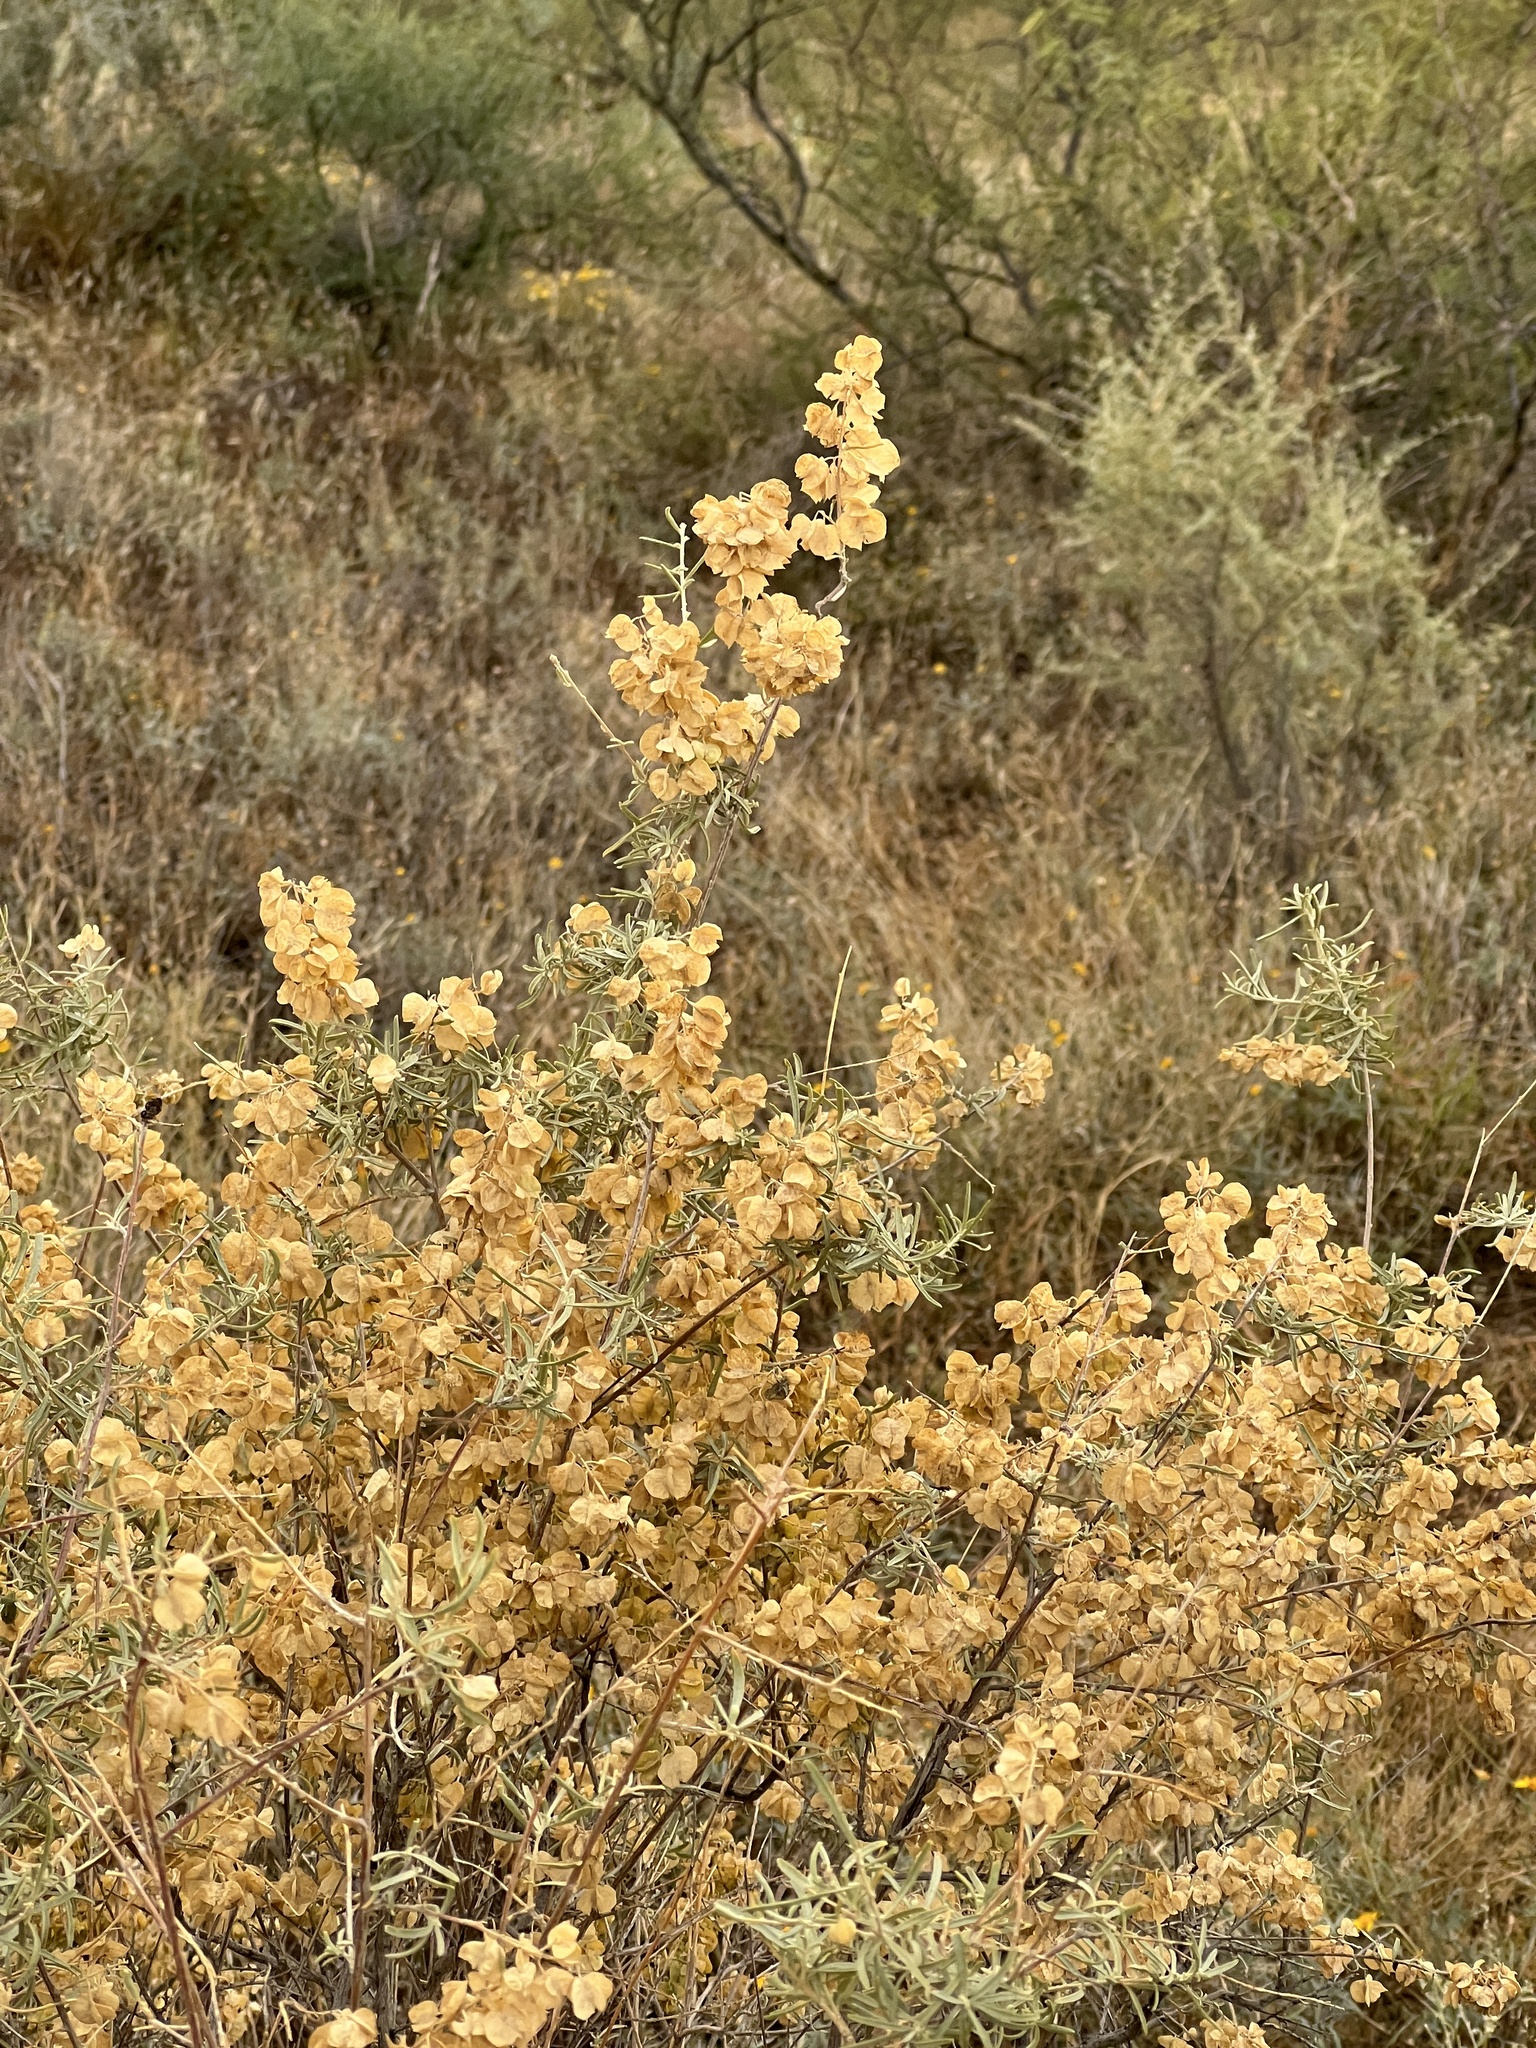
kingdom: Plantae
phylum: Tracheophyta
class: Magnoliopsida
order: Caryophyllales
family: Amaranthaceae
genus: Atriplex
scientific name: Atriplex canescens
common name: Four-wing saltbush
